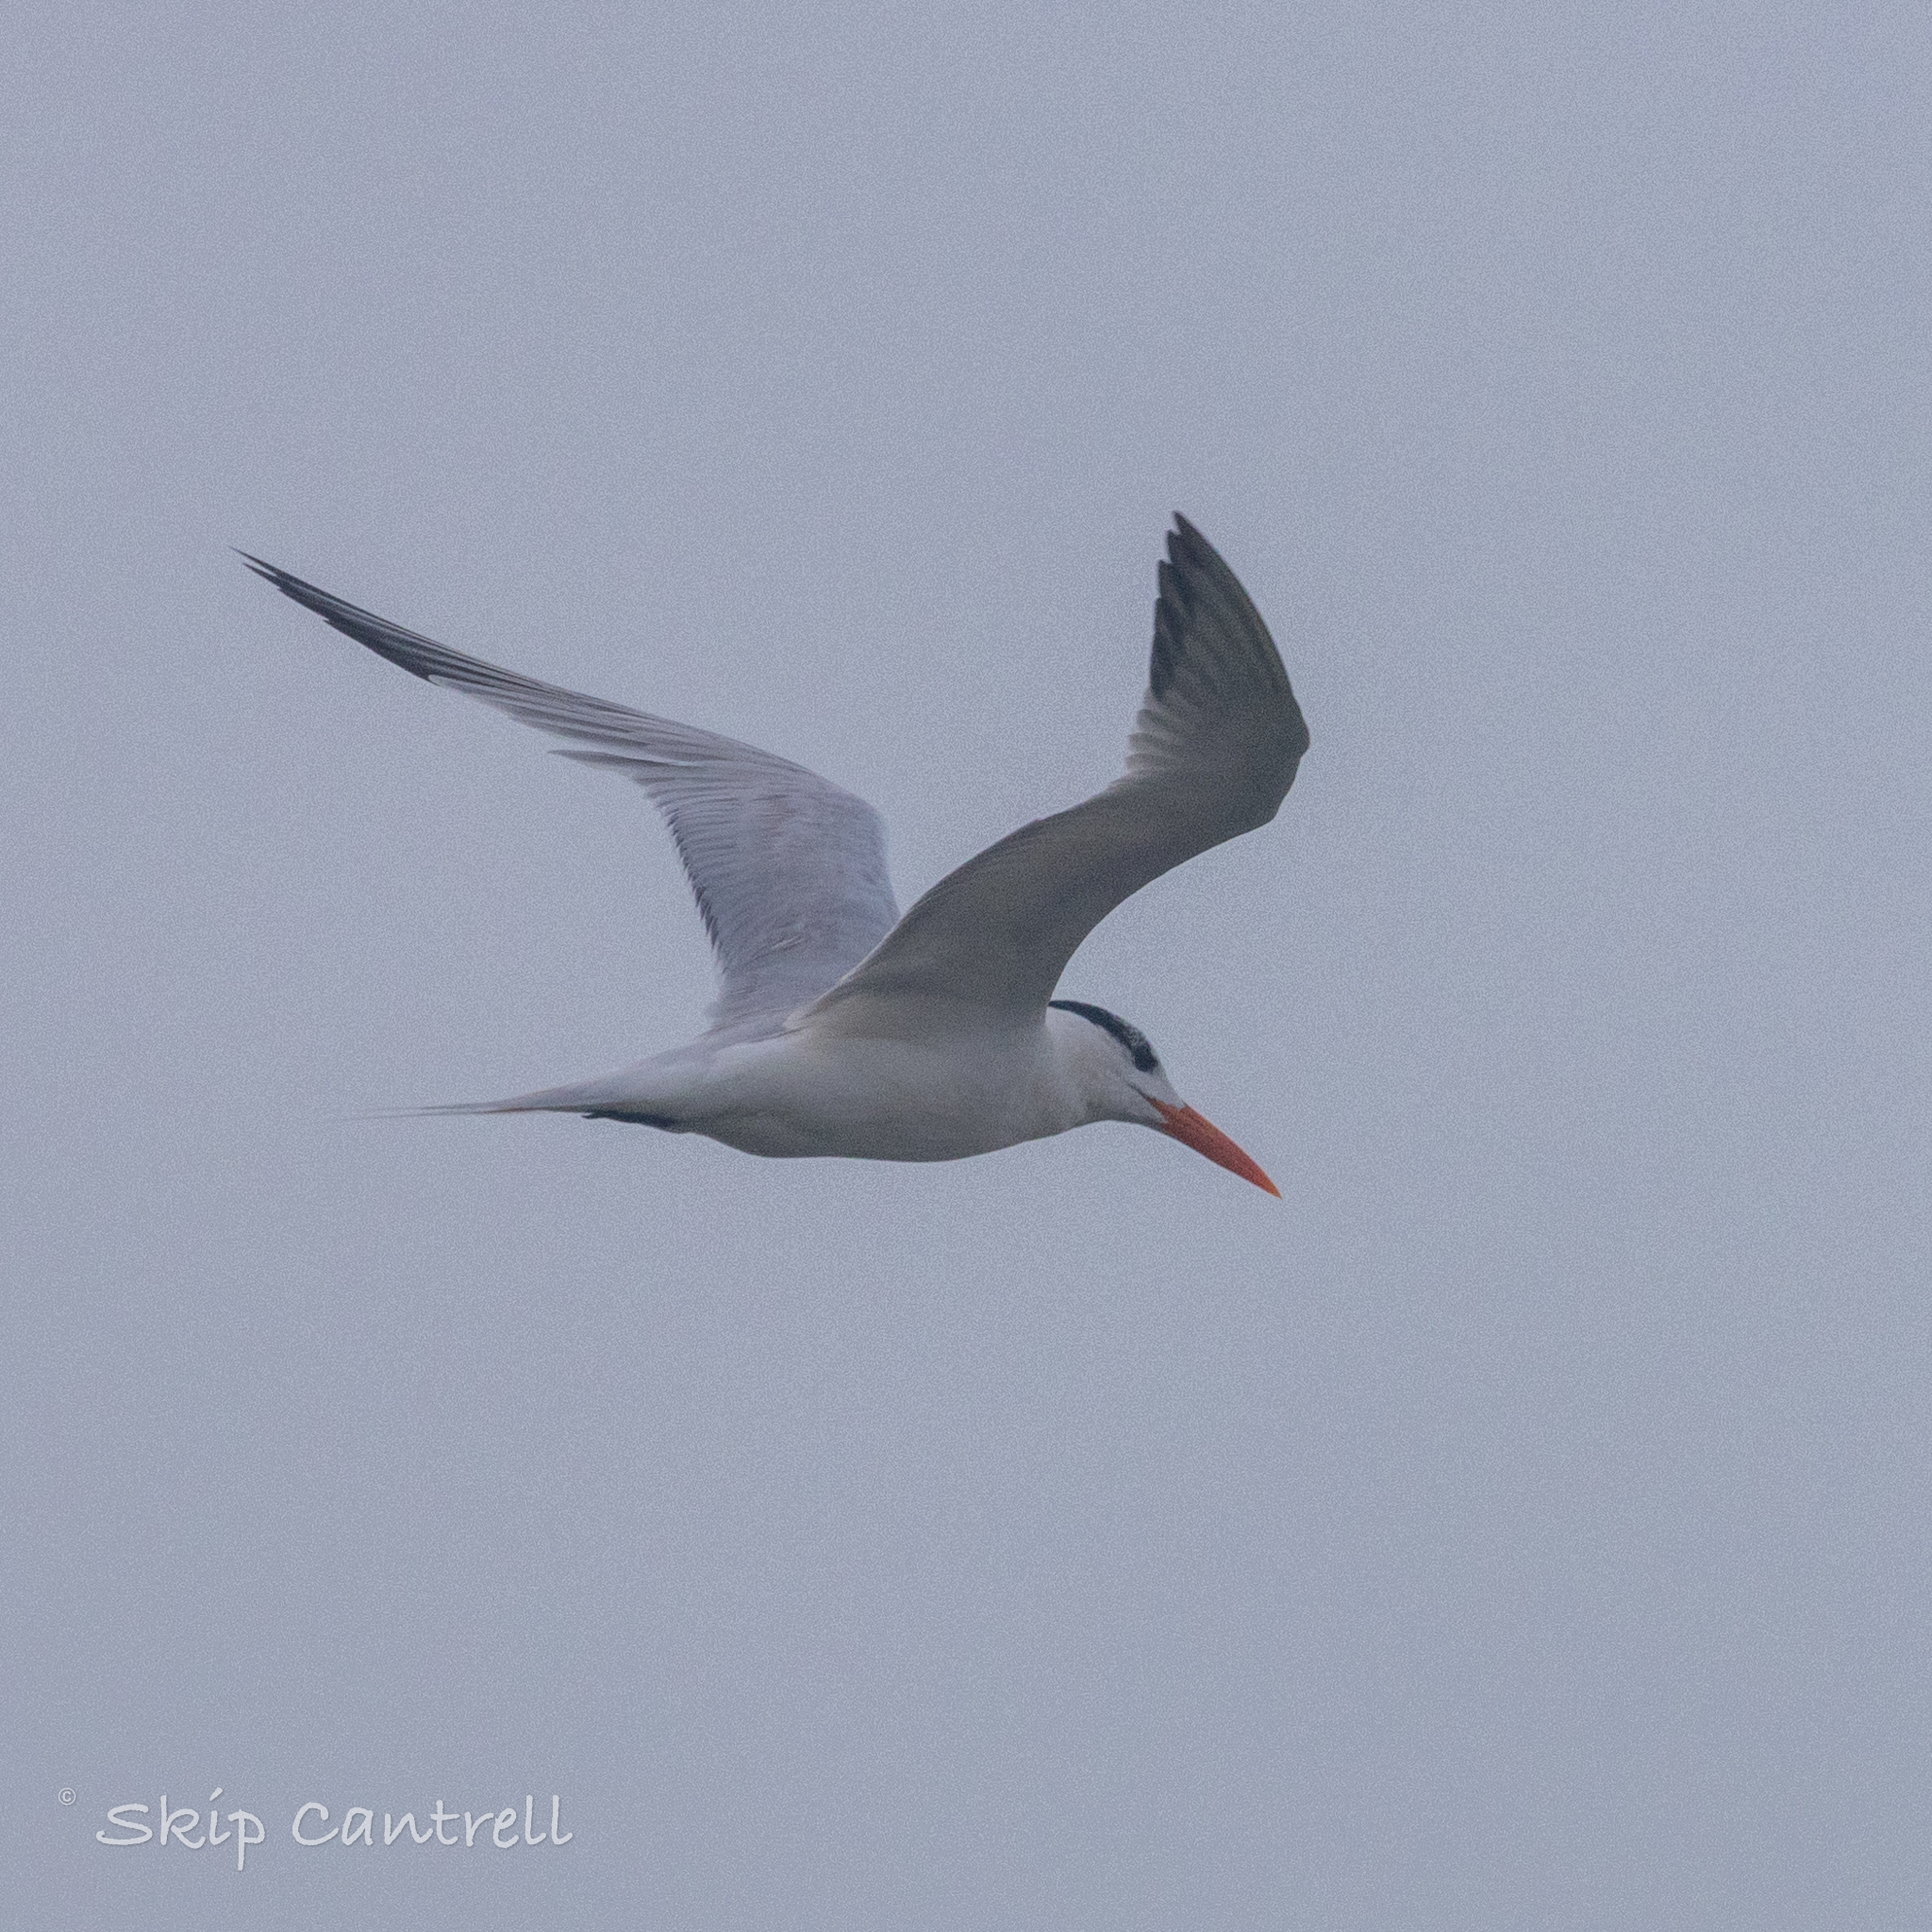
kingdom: Animalia
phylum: Chordata
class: Aves
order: Charadriiformes
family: Laridae
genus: Thalasseus
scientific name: Thalasseus maximus
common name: Royal tern
